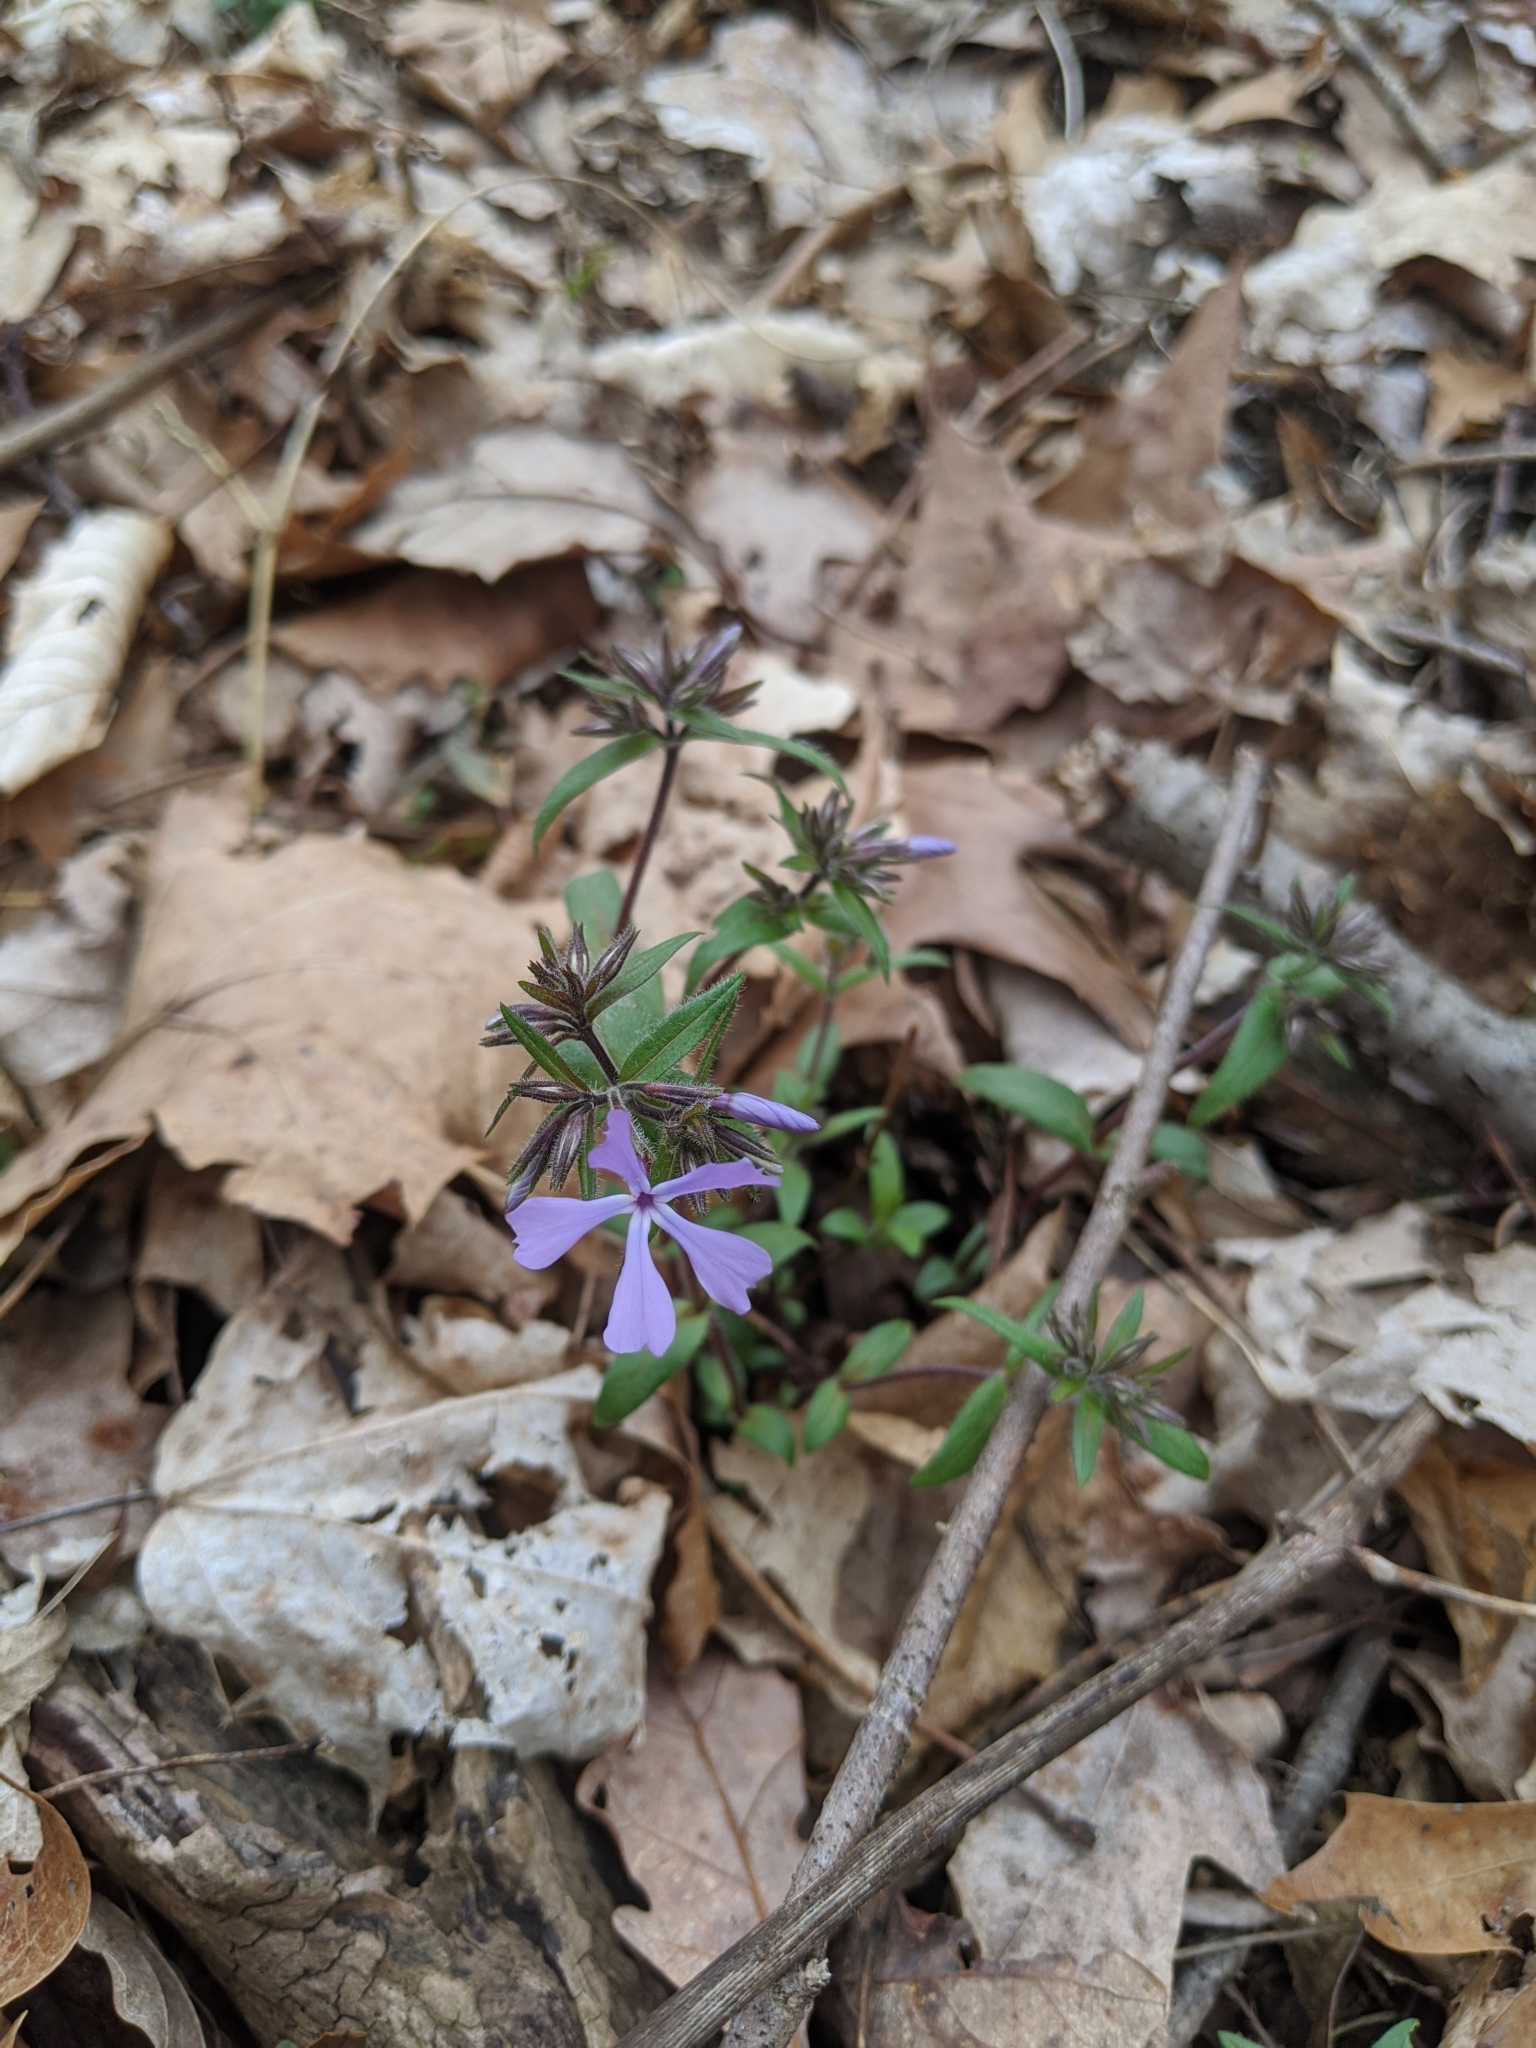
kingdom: Plantae
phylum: Tracheophyta
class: Magnoliopsida
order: Ericales
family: Polemoniaceae
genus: Phlox
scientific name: Phlox divaricata
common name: Blue phlox
